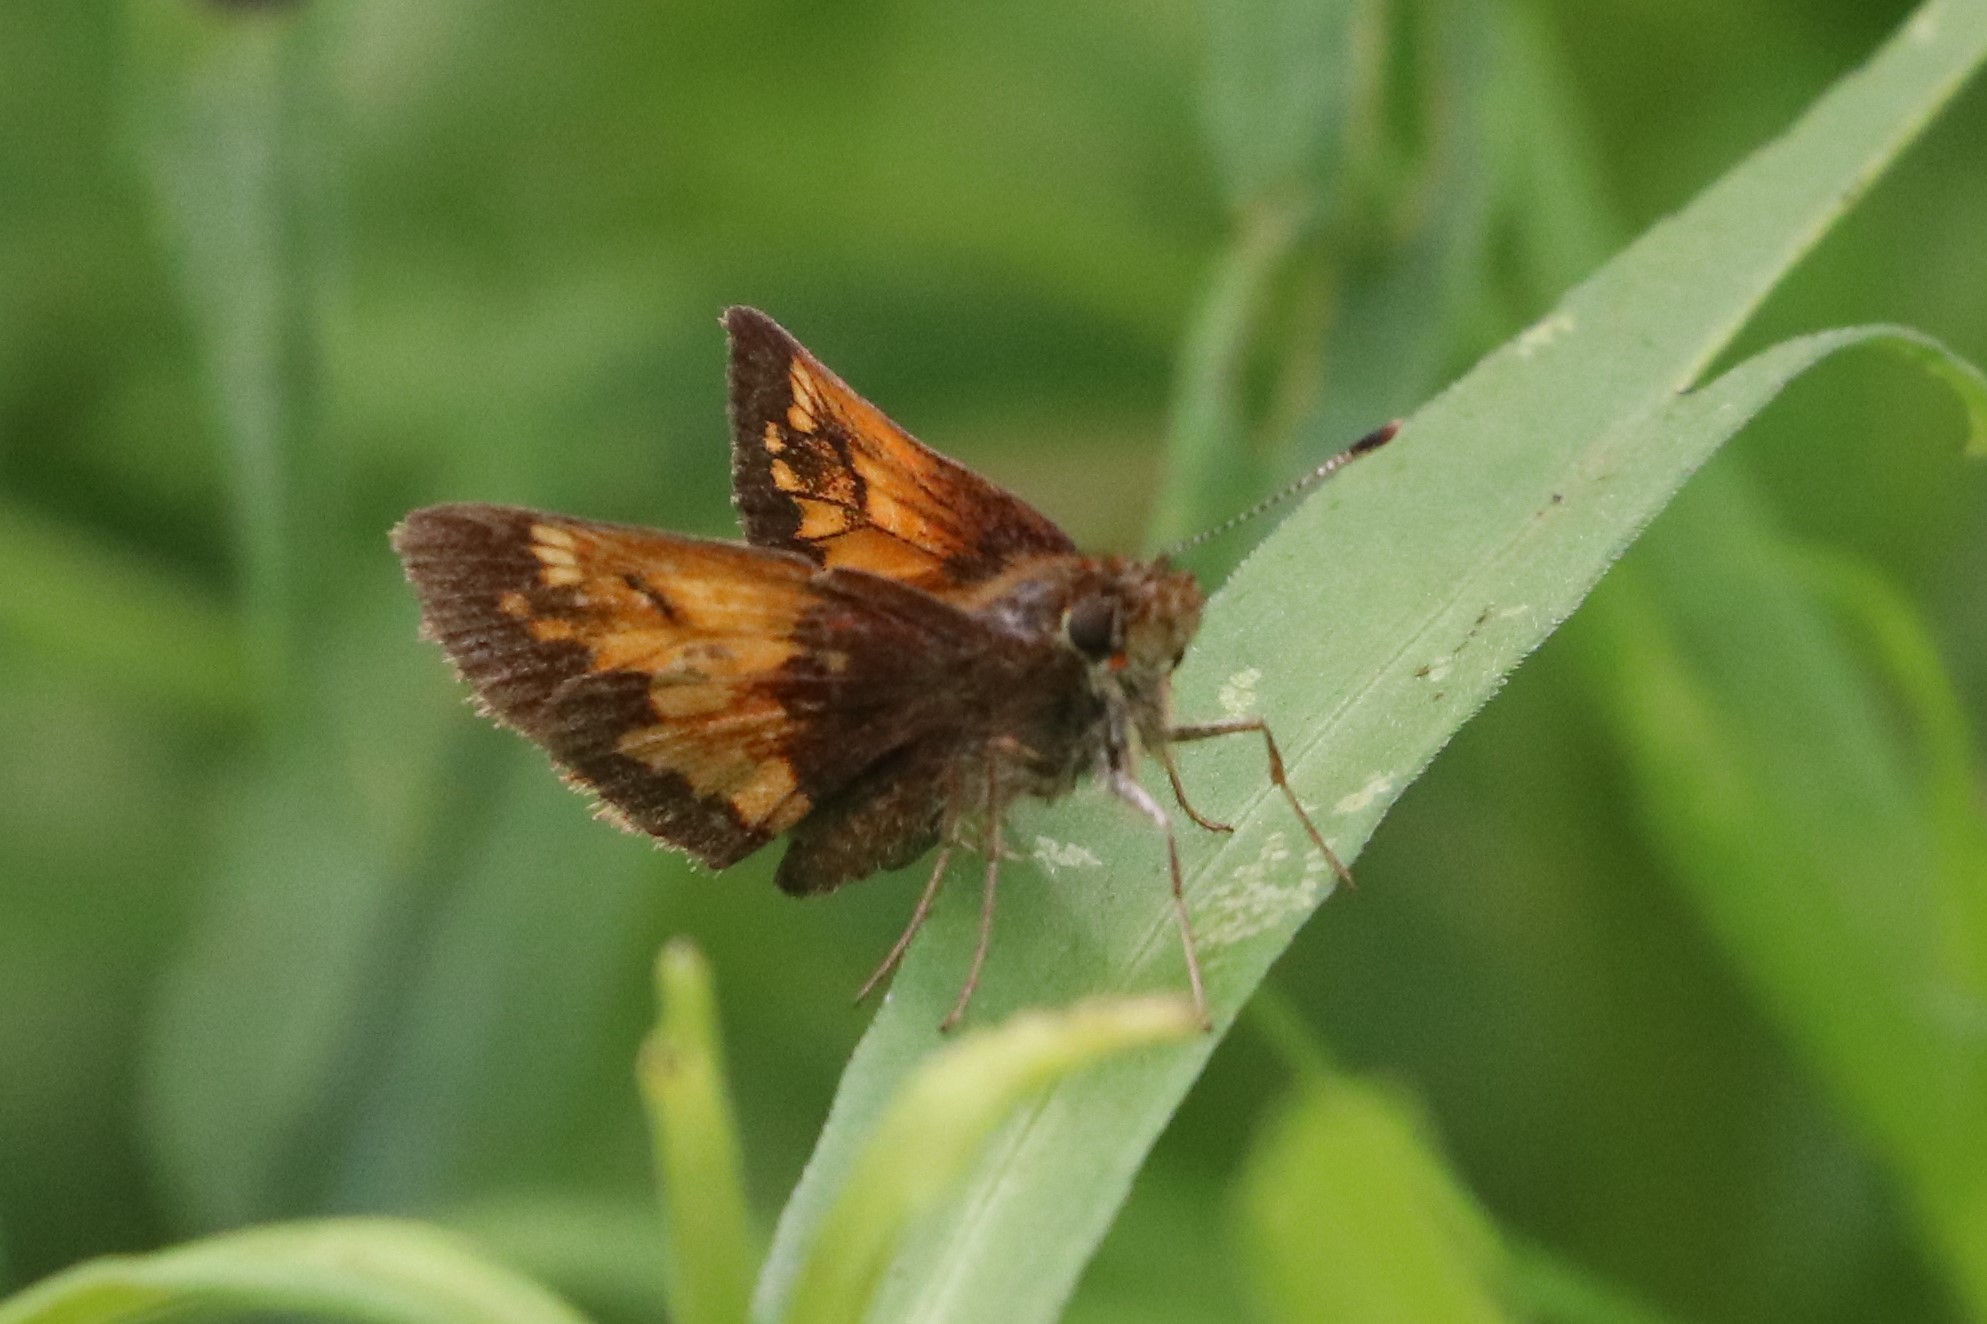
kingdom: Animalia
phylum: Arthropoda
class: Insecta
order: Lepidoptera
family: Hesperiidae
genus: Lon
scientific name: Lon hobomok
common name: Hobomok skipper
